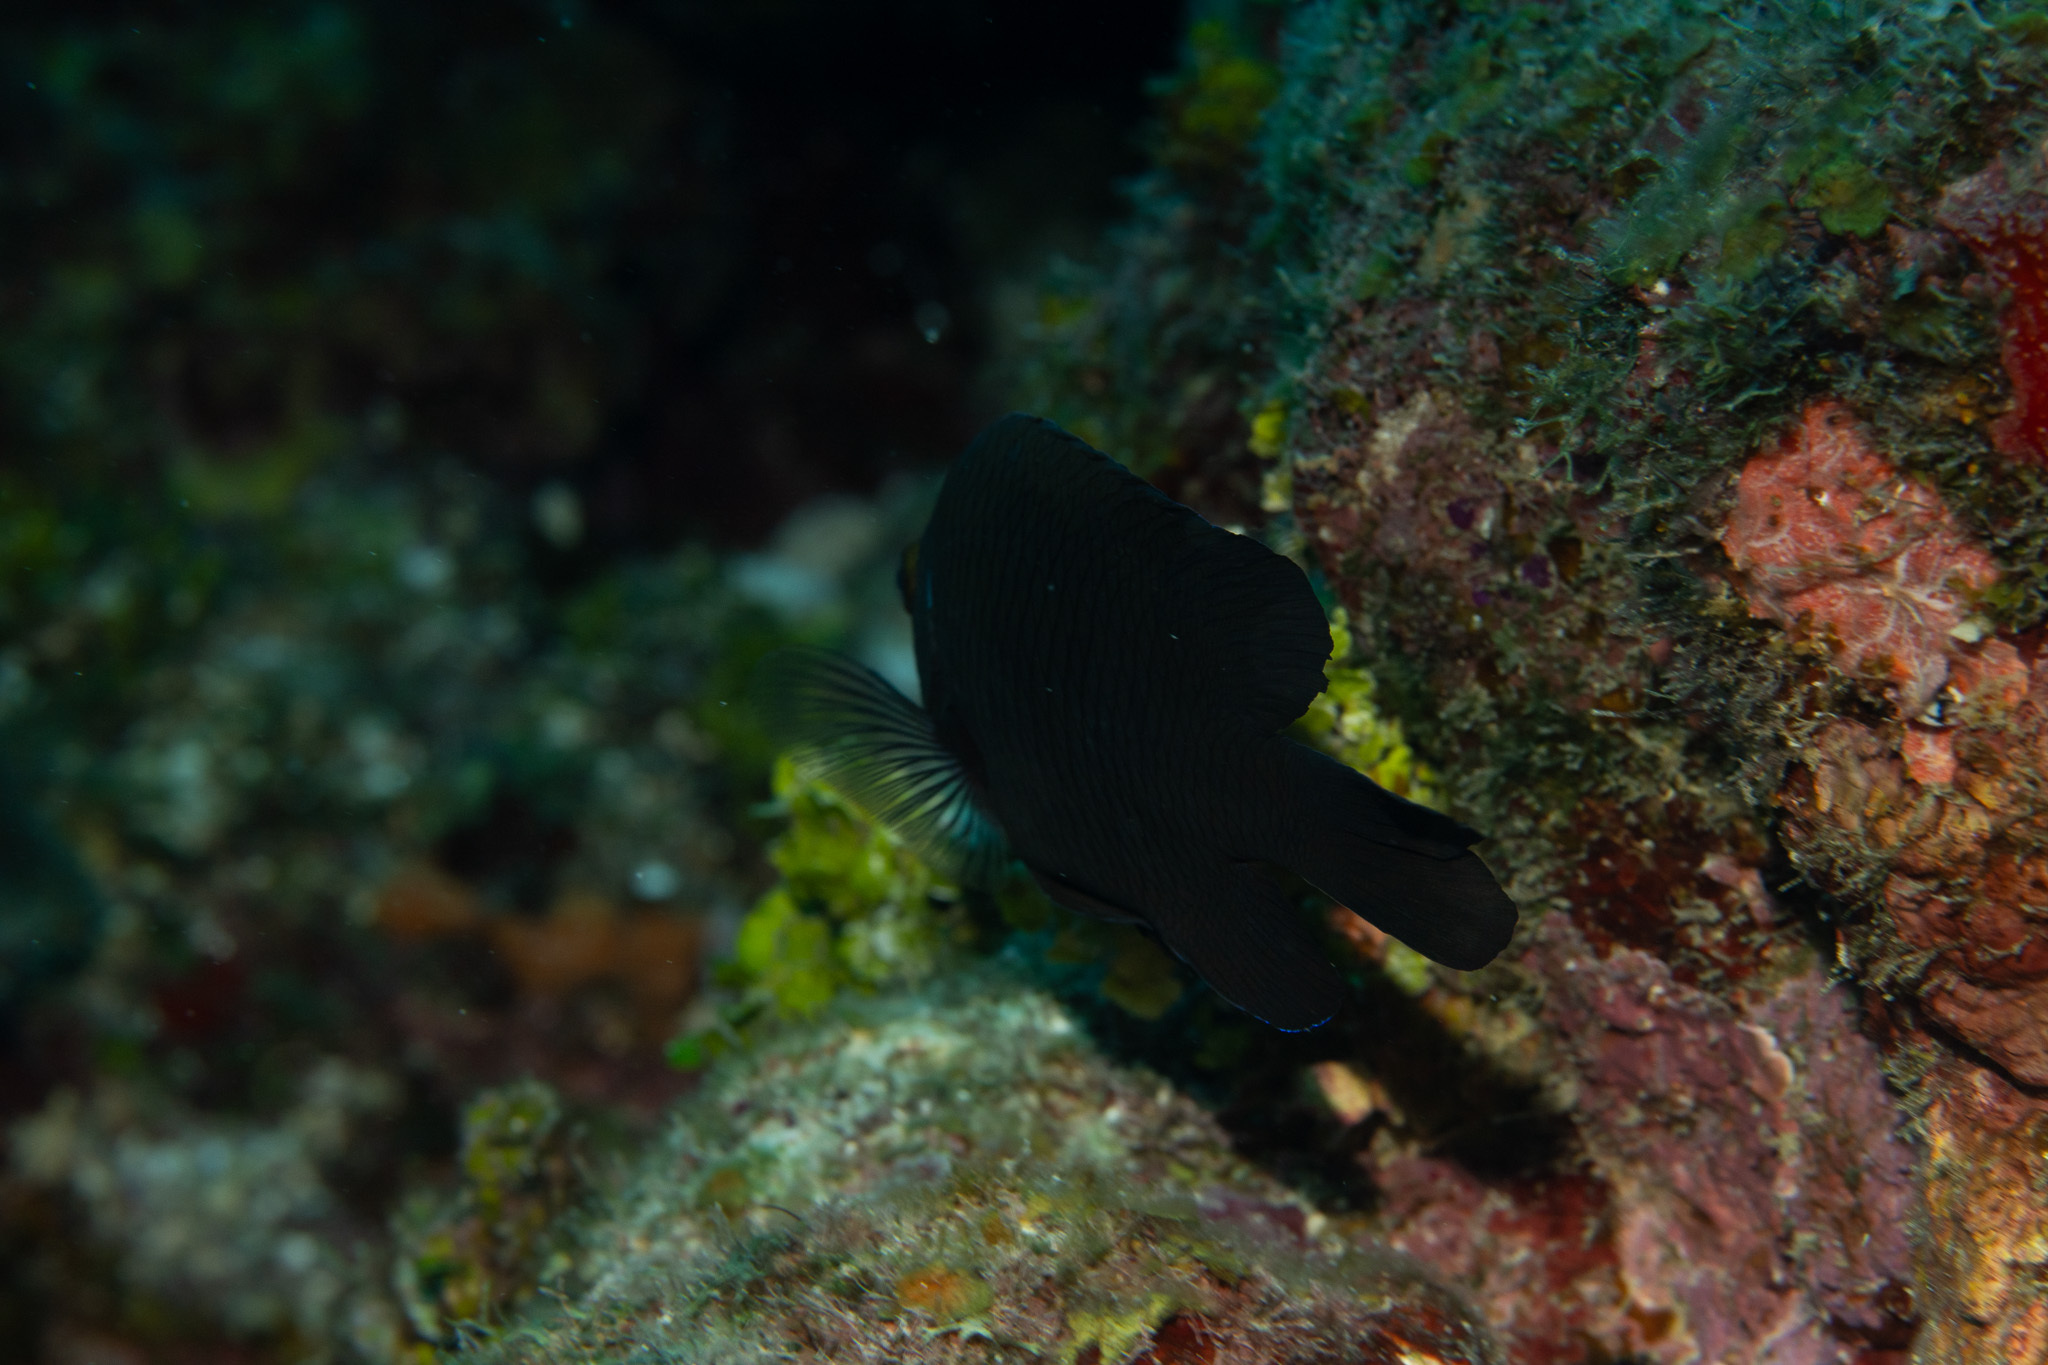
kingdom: Animalia
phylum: Chordata
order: Perciformes
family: Pomacentridae
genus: Stegastes
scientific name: Stegastes diencaeus
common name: Longfin damselfish
